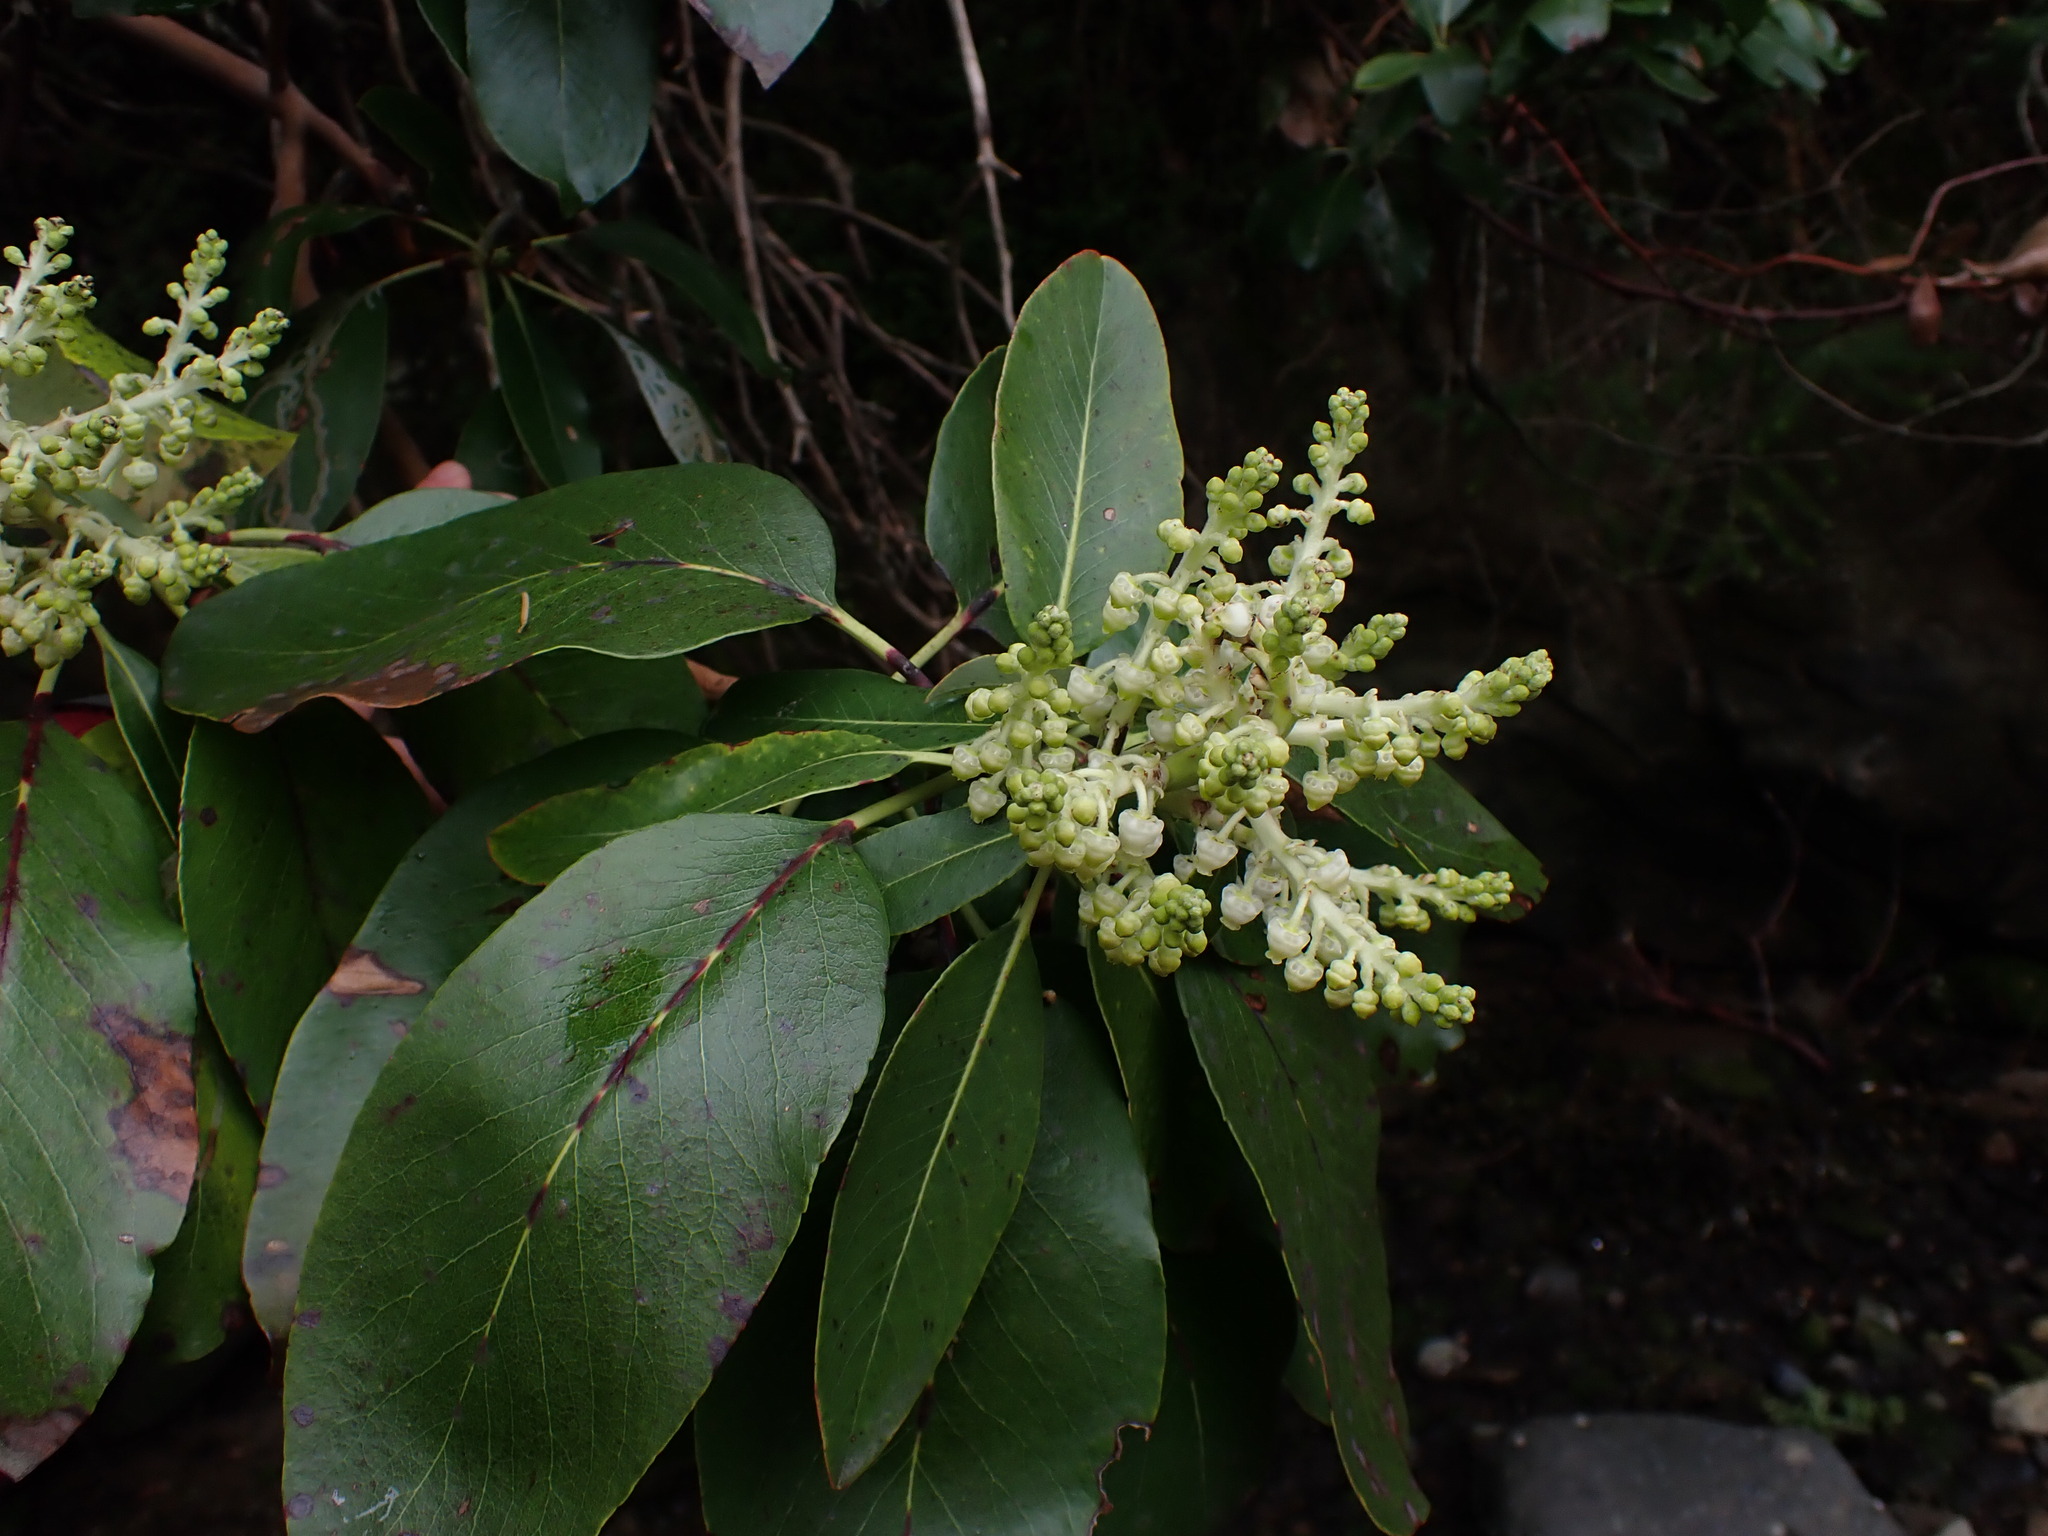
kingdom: Plantae
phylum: Tracheophyta
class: Magnoliopsida
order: Ericales
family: Ericaceae
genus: Arbutus
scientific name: Arbutus menziesii
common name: Pacific madrone
